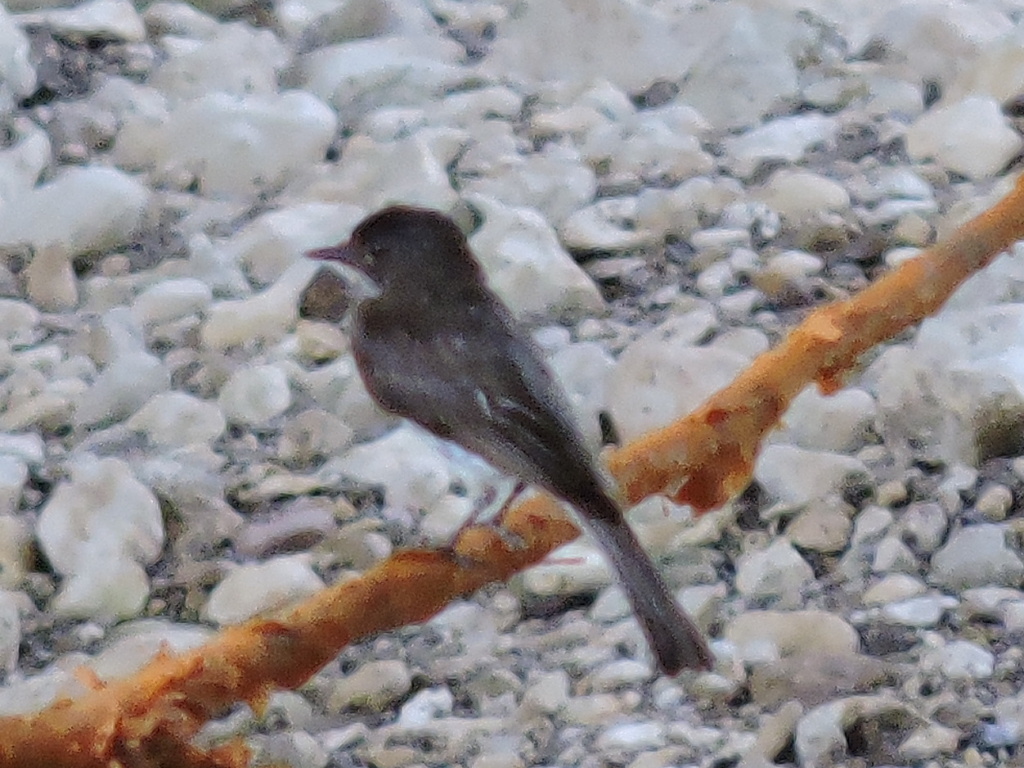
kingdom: Animalia
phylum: Chordata
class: Aves
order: Passeriformes
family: Tyrannidae
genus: Sayornis
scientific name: Sayornis phoebe
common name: Eastern phoebe
